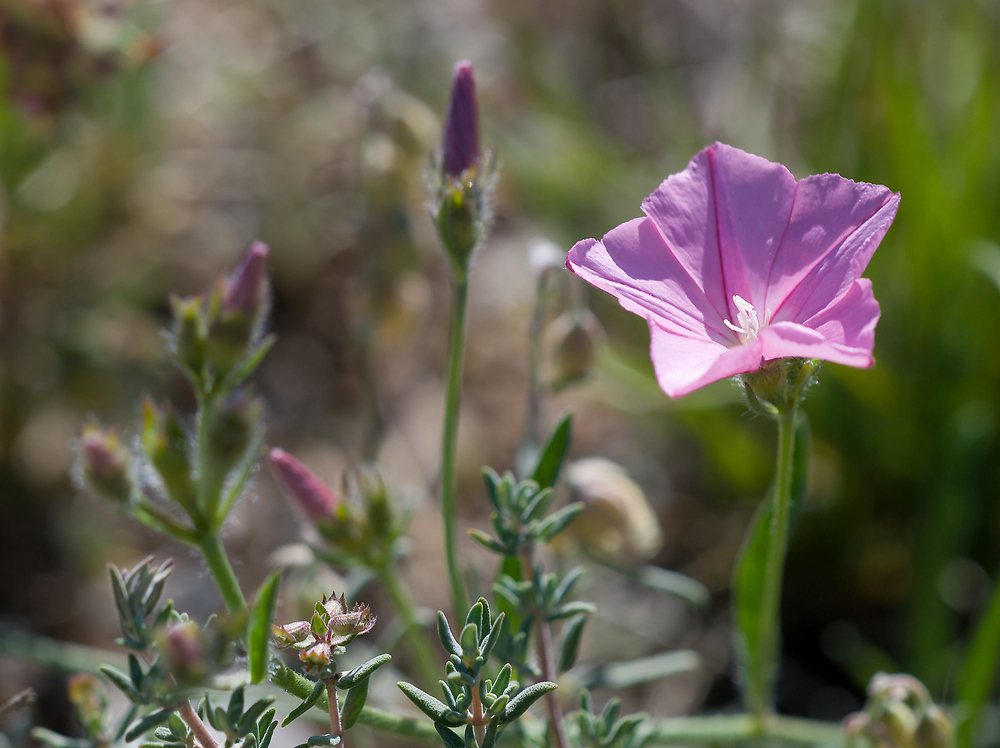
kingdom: Plantae
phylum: Tracheophyta
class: Magnoliopsida
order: Solanales
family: Convolvulaceae
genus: Convolvulus
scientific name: Convolvulus cantabrica
